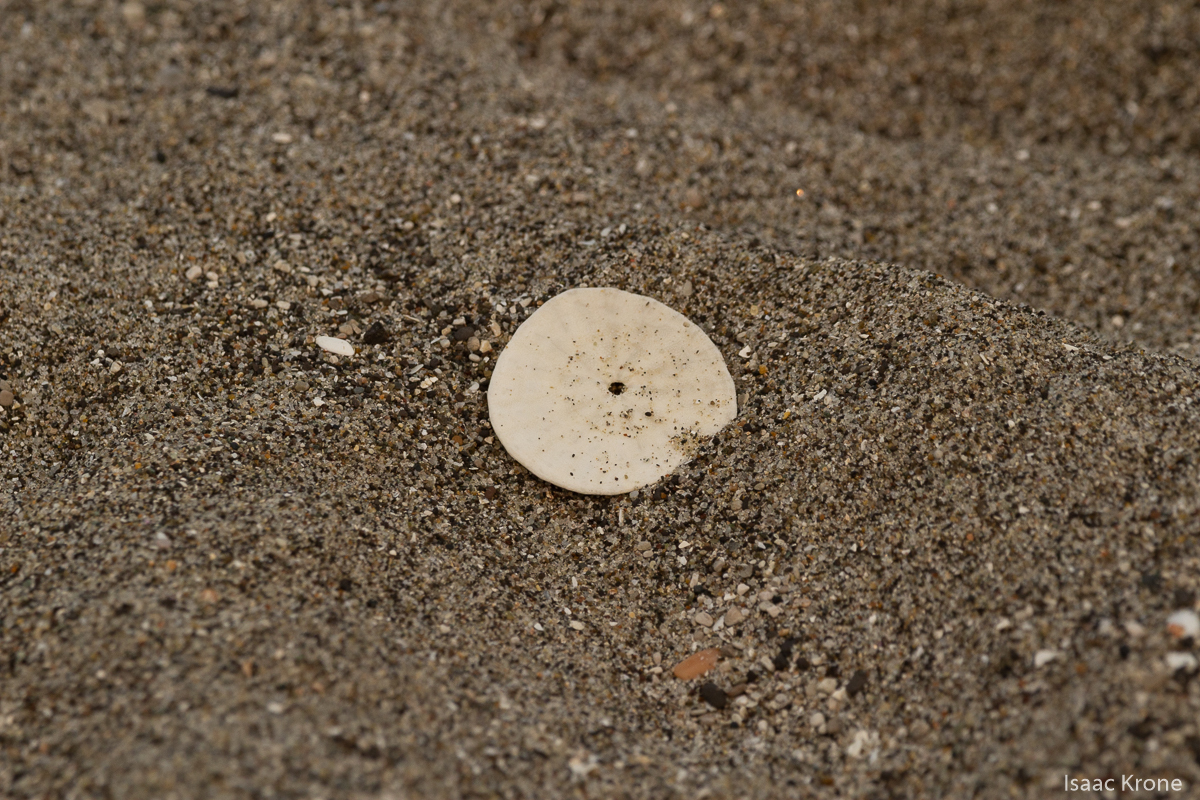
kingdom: Animalia
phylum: Echinodermata
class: Echinoidea
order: Echinolampadacea
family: Dendrasteridae
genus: Dendraster
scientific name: Dendraster excentricus
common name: Eccentric sand dollar sea urchin
